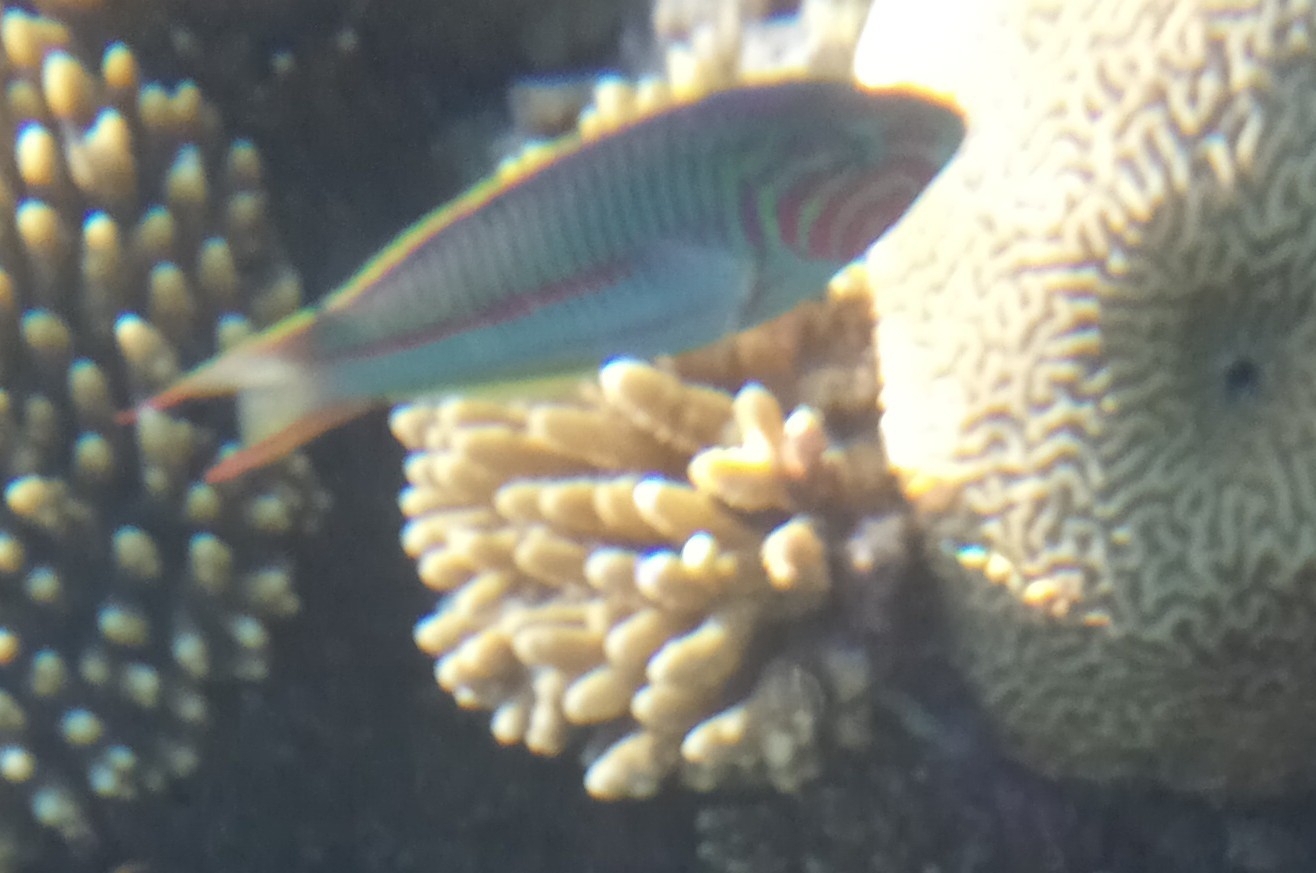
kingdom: Animalia
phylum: Chordata
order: Perciformes
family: Labridae
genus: Thalassoma
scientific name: Thalassoma rueppellii
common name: Klunzinger's wrasse
